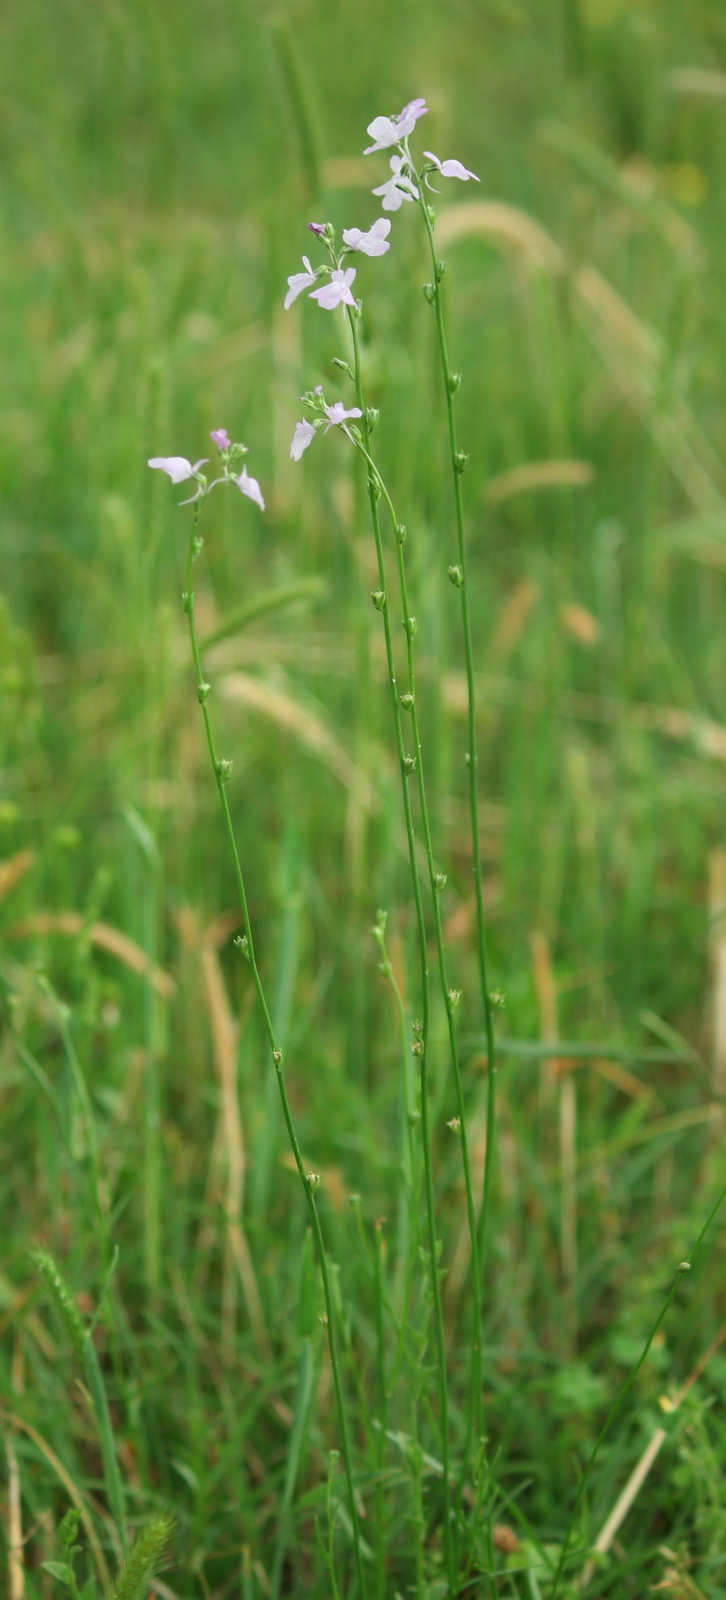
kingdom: Plantae
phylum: Tracheophyta
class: Magnoliopsida
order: Lamiales
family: Plantaginaceae
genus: Nuttallanthus
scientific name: Nuttallanthus texanus
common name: Texas toadflax
